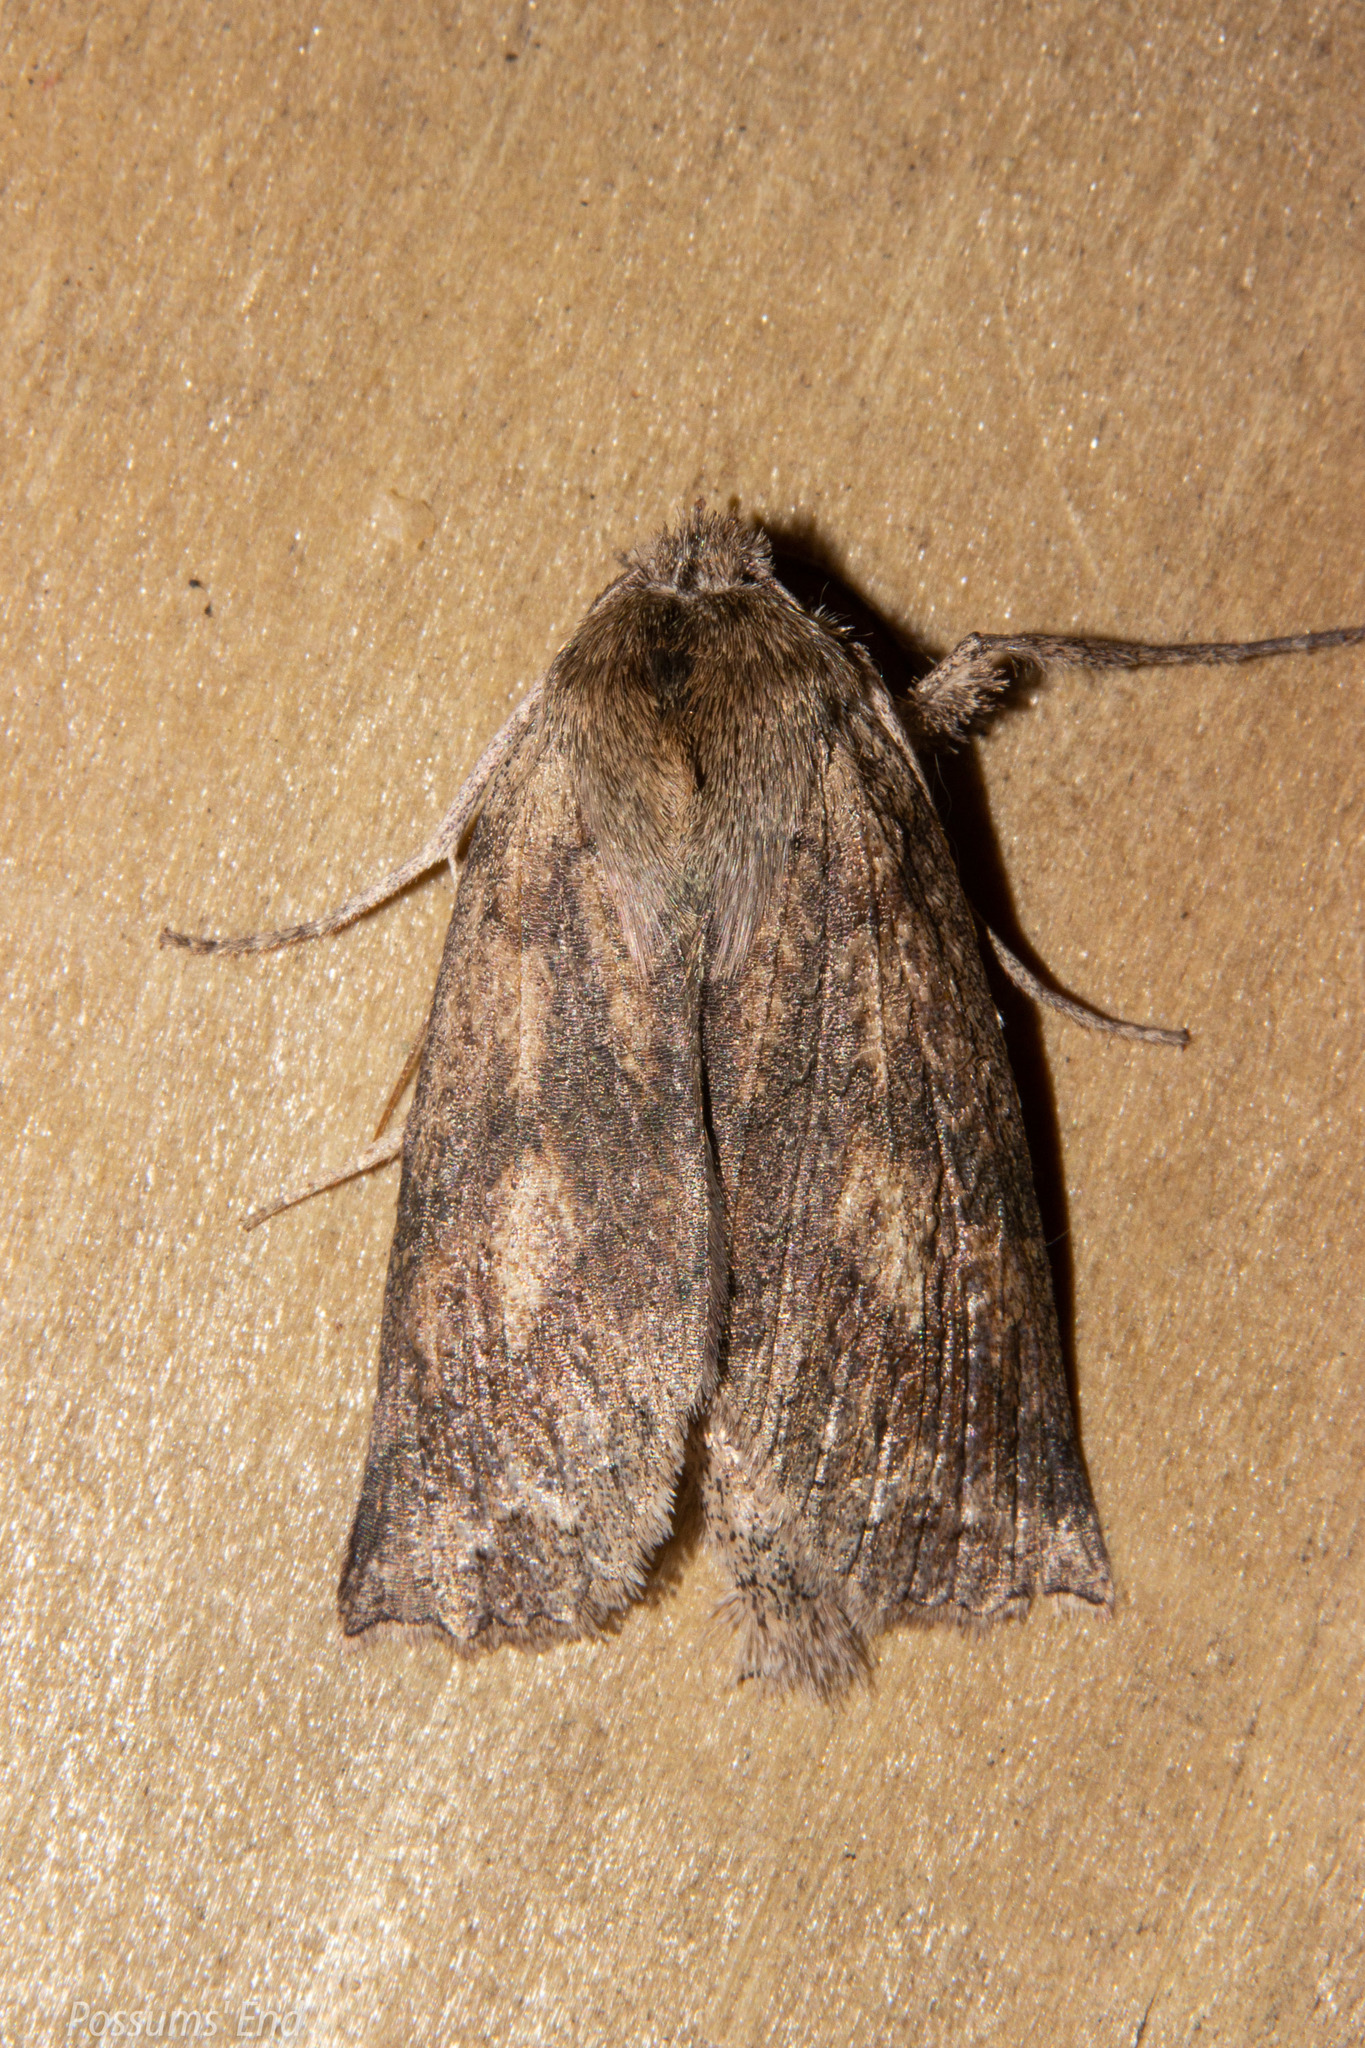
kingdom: Animalia
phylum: Arthropoda
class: Insecta
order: Lepidoptera
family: Geometridae
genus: Declana
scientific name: Declana leptomera
